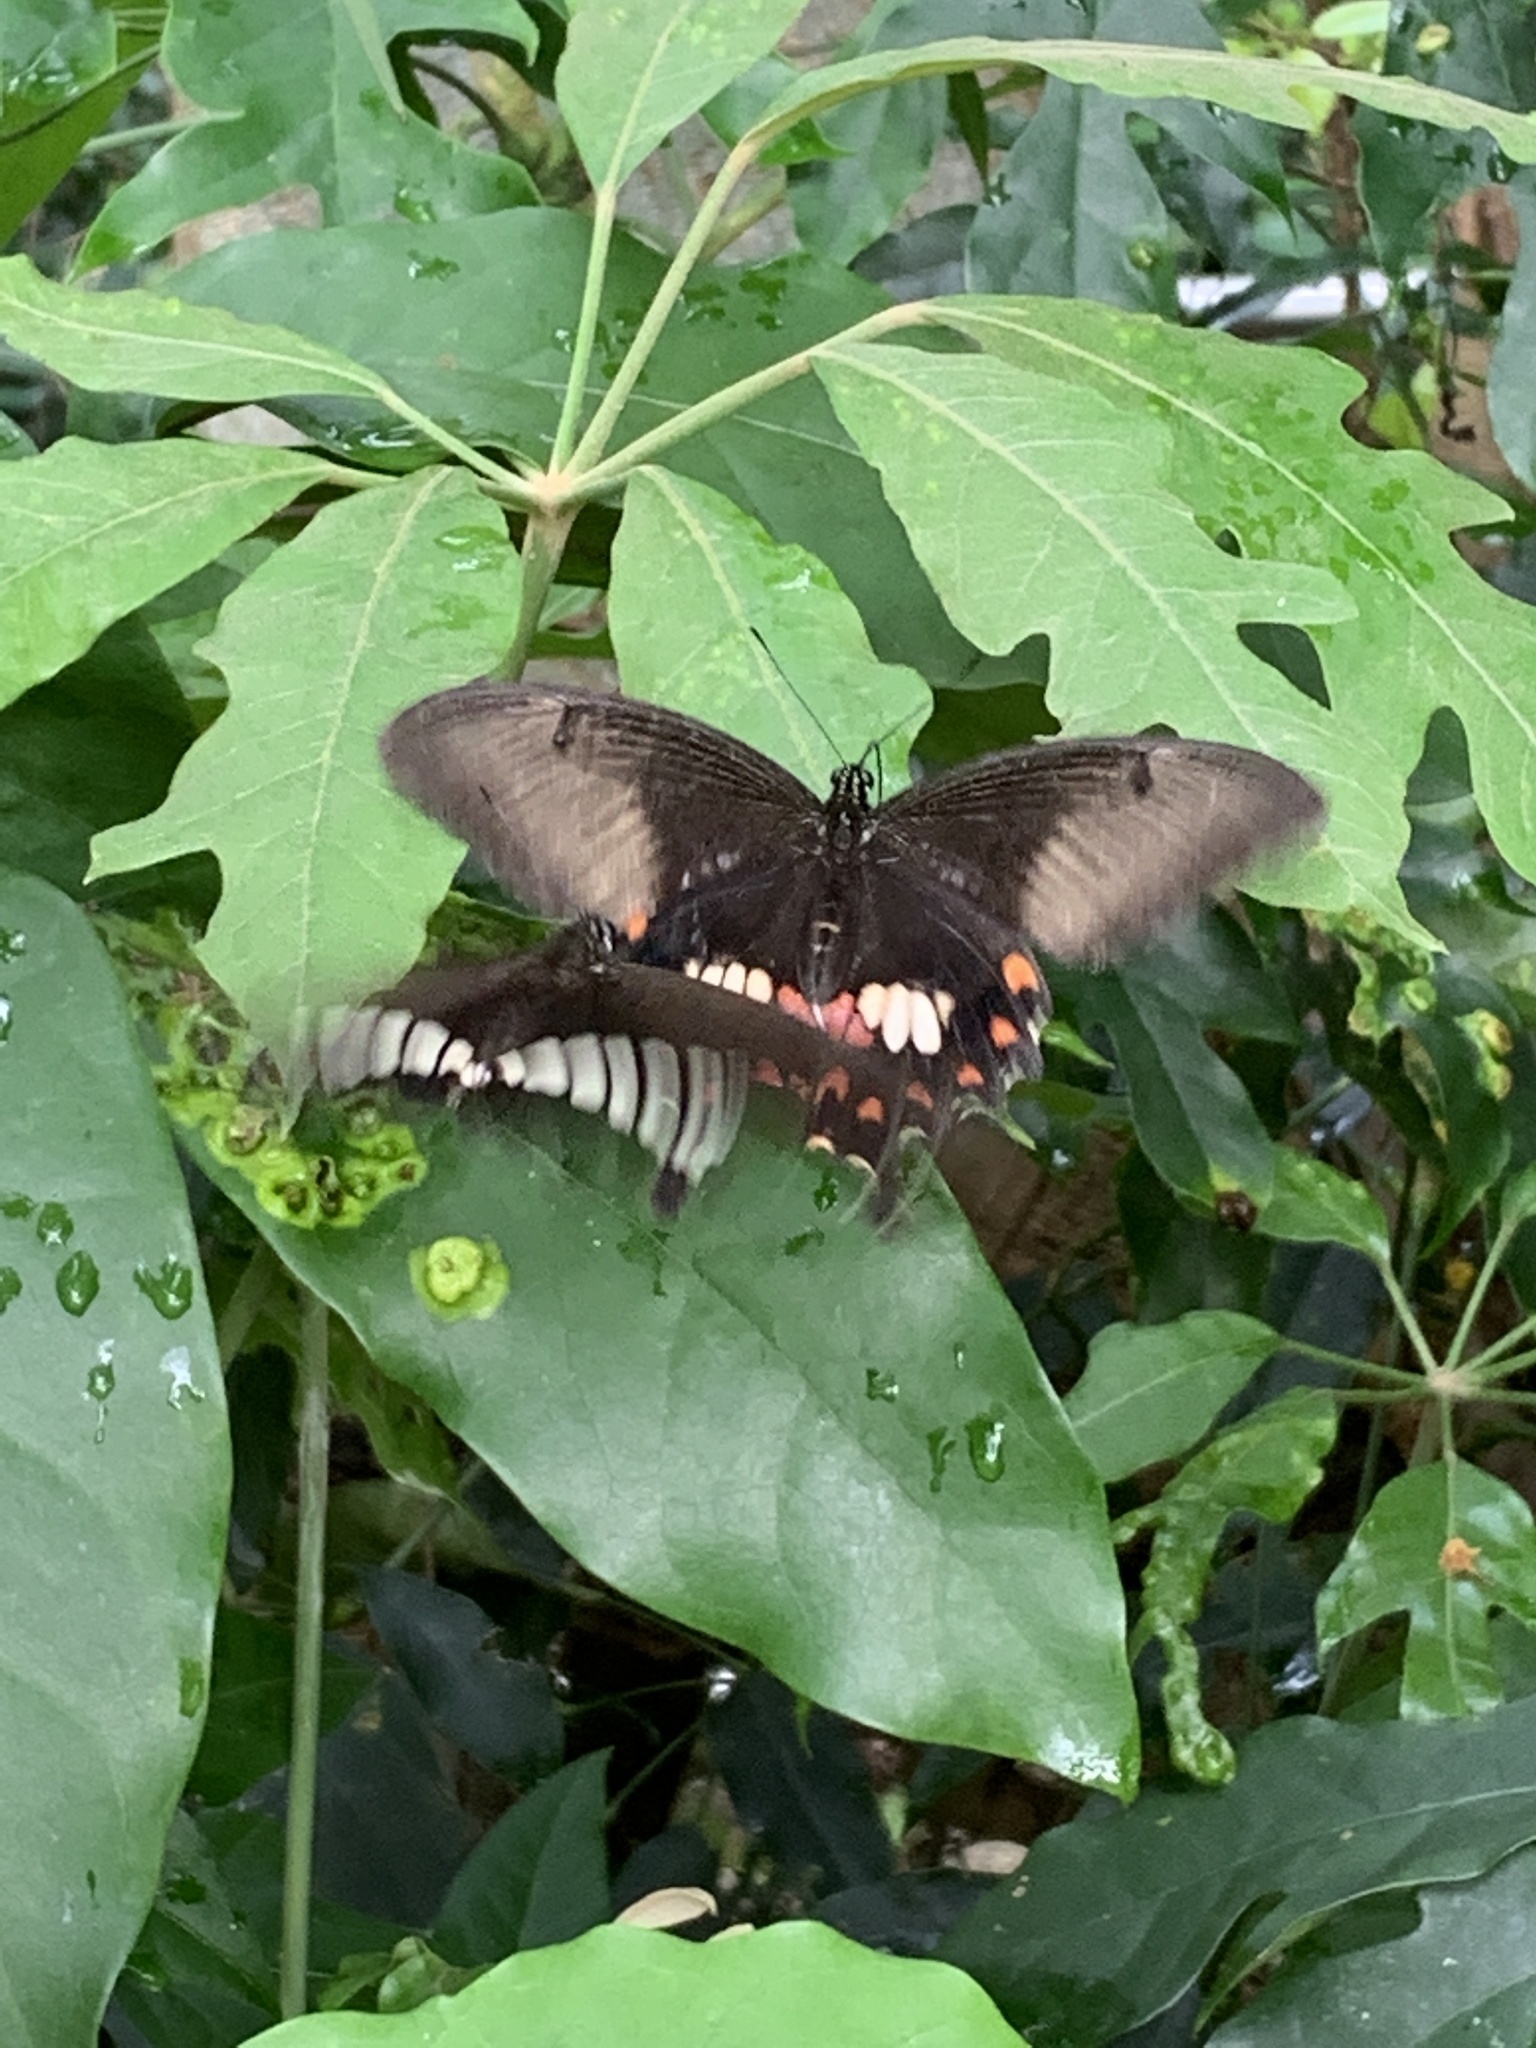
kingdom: Animalia
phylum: Arthropoda
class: Insecta
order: Lepidoptera
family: Papilionidae
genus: Papilio
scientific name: Papilio polytes
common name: Common mormon
